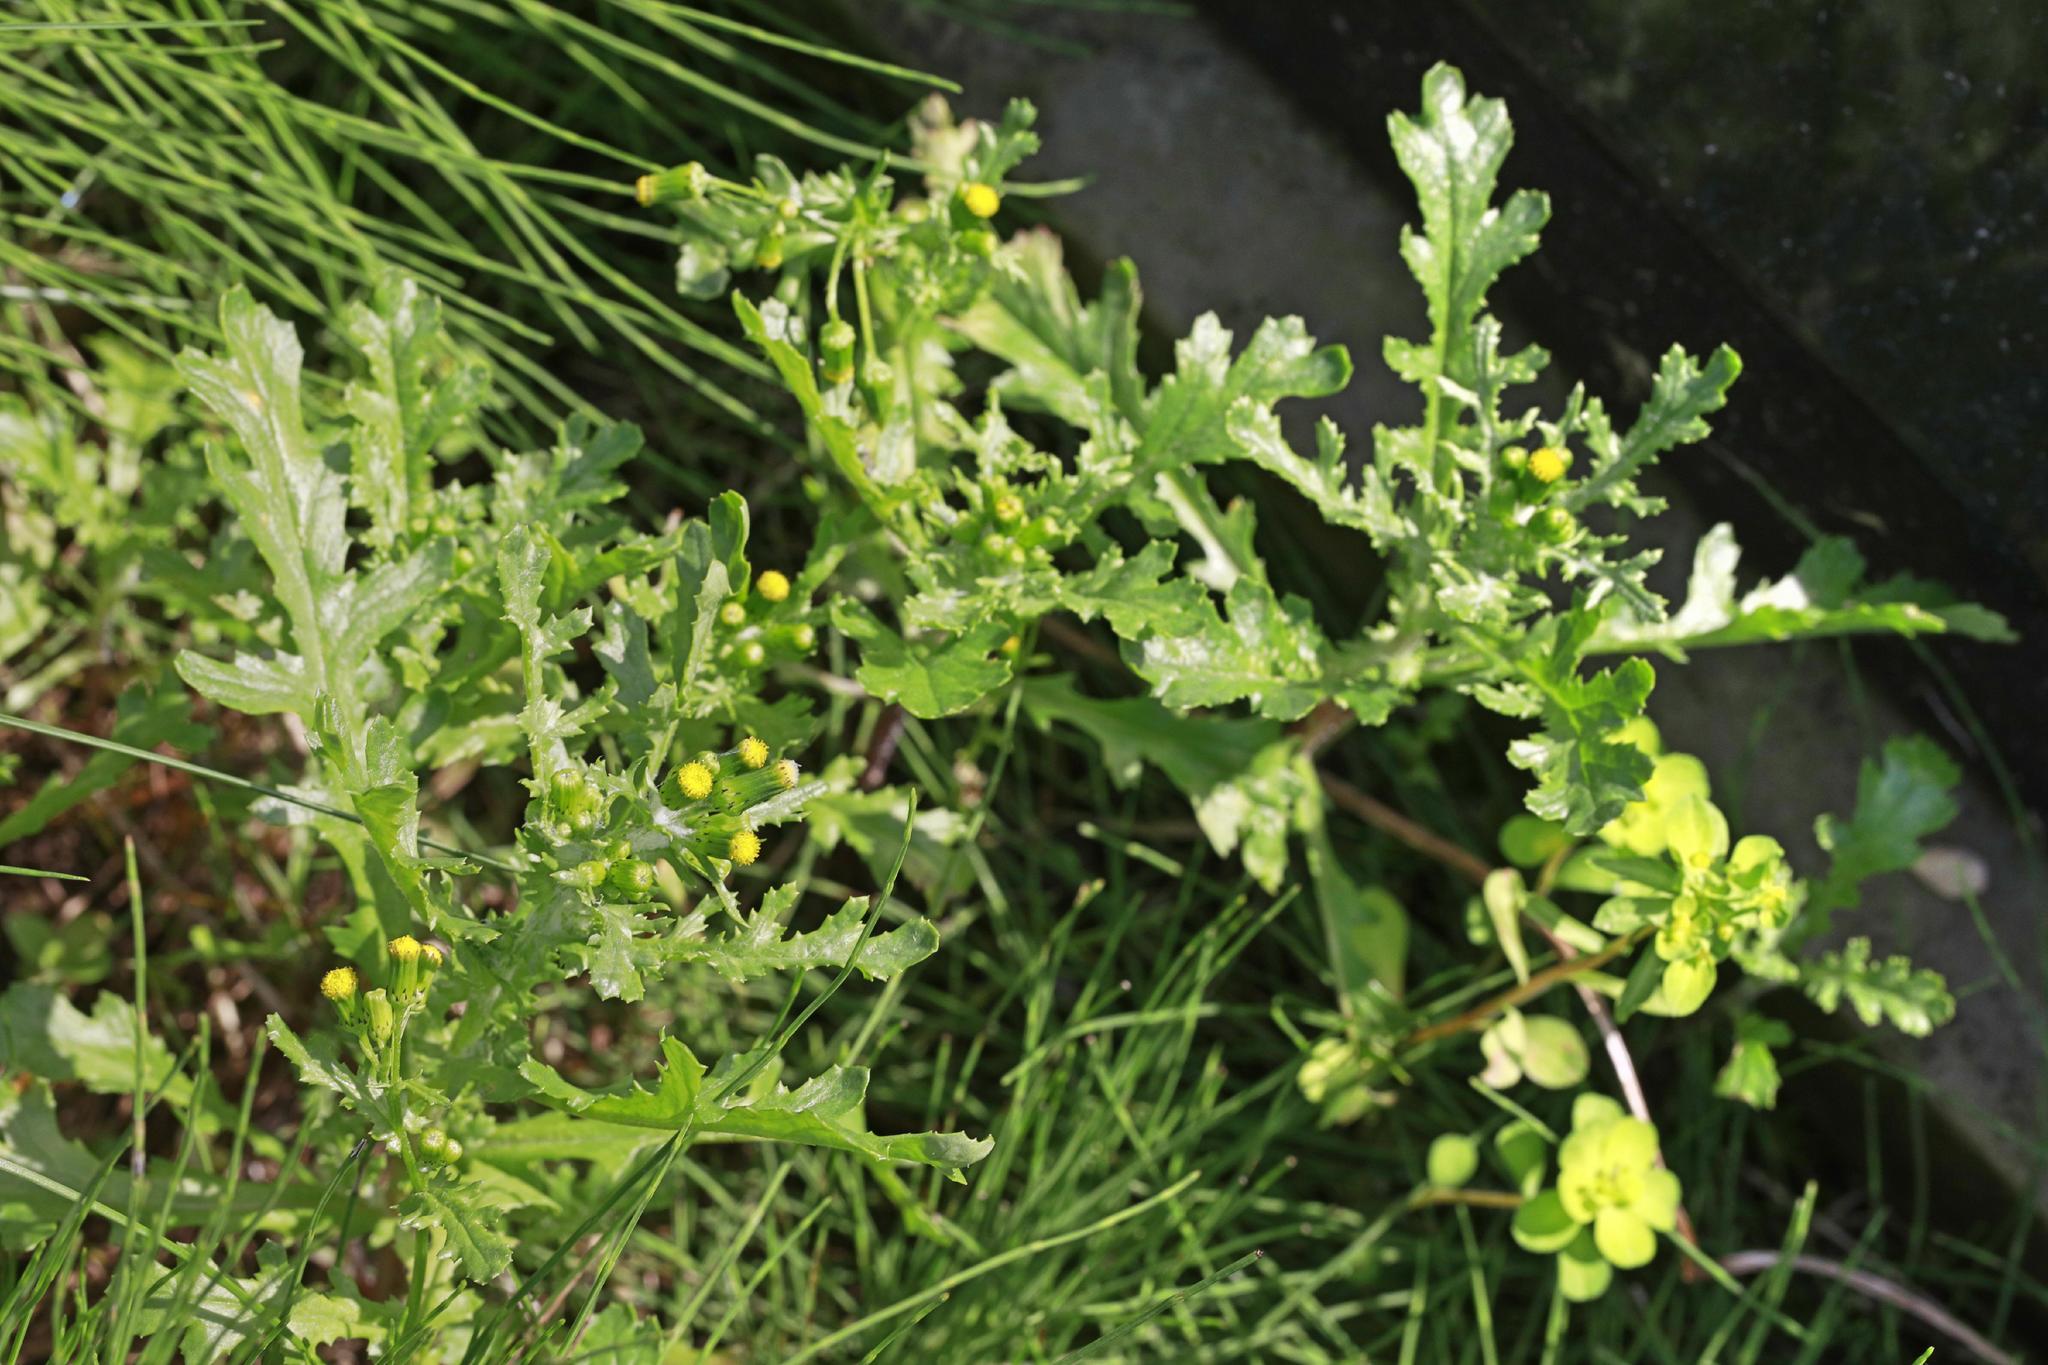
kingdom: Plantae
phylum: Tracheophyta
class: Magnoliopsida
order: Asterales
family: Asteraceae
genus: Senecio
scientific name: Senecio vulgaris
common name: Old-man-in-the-spring
